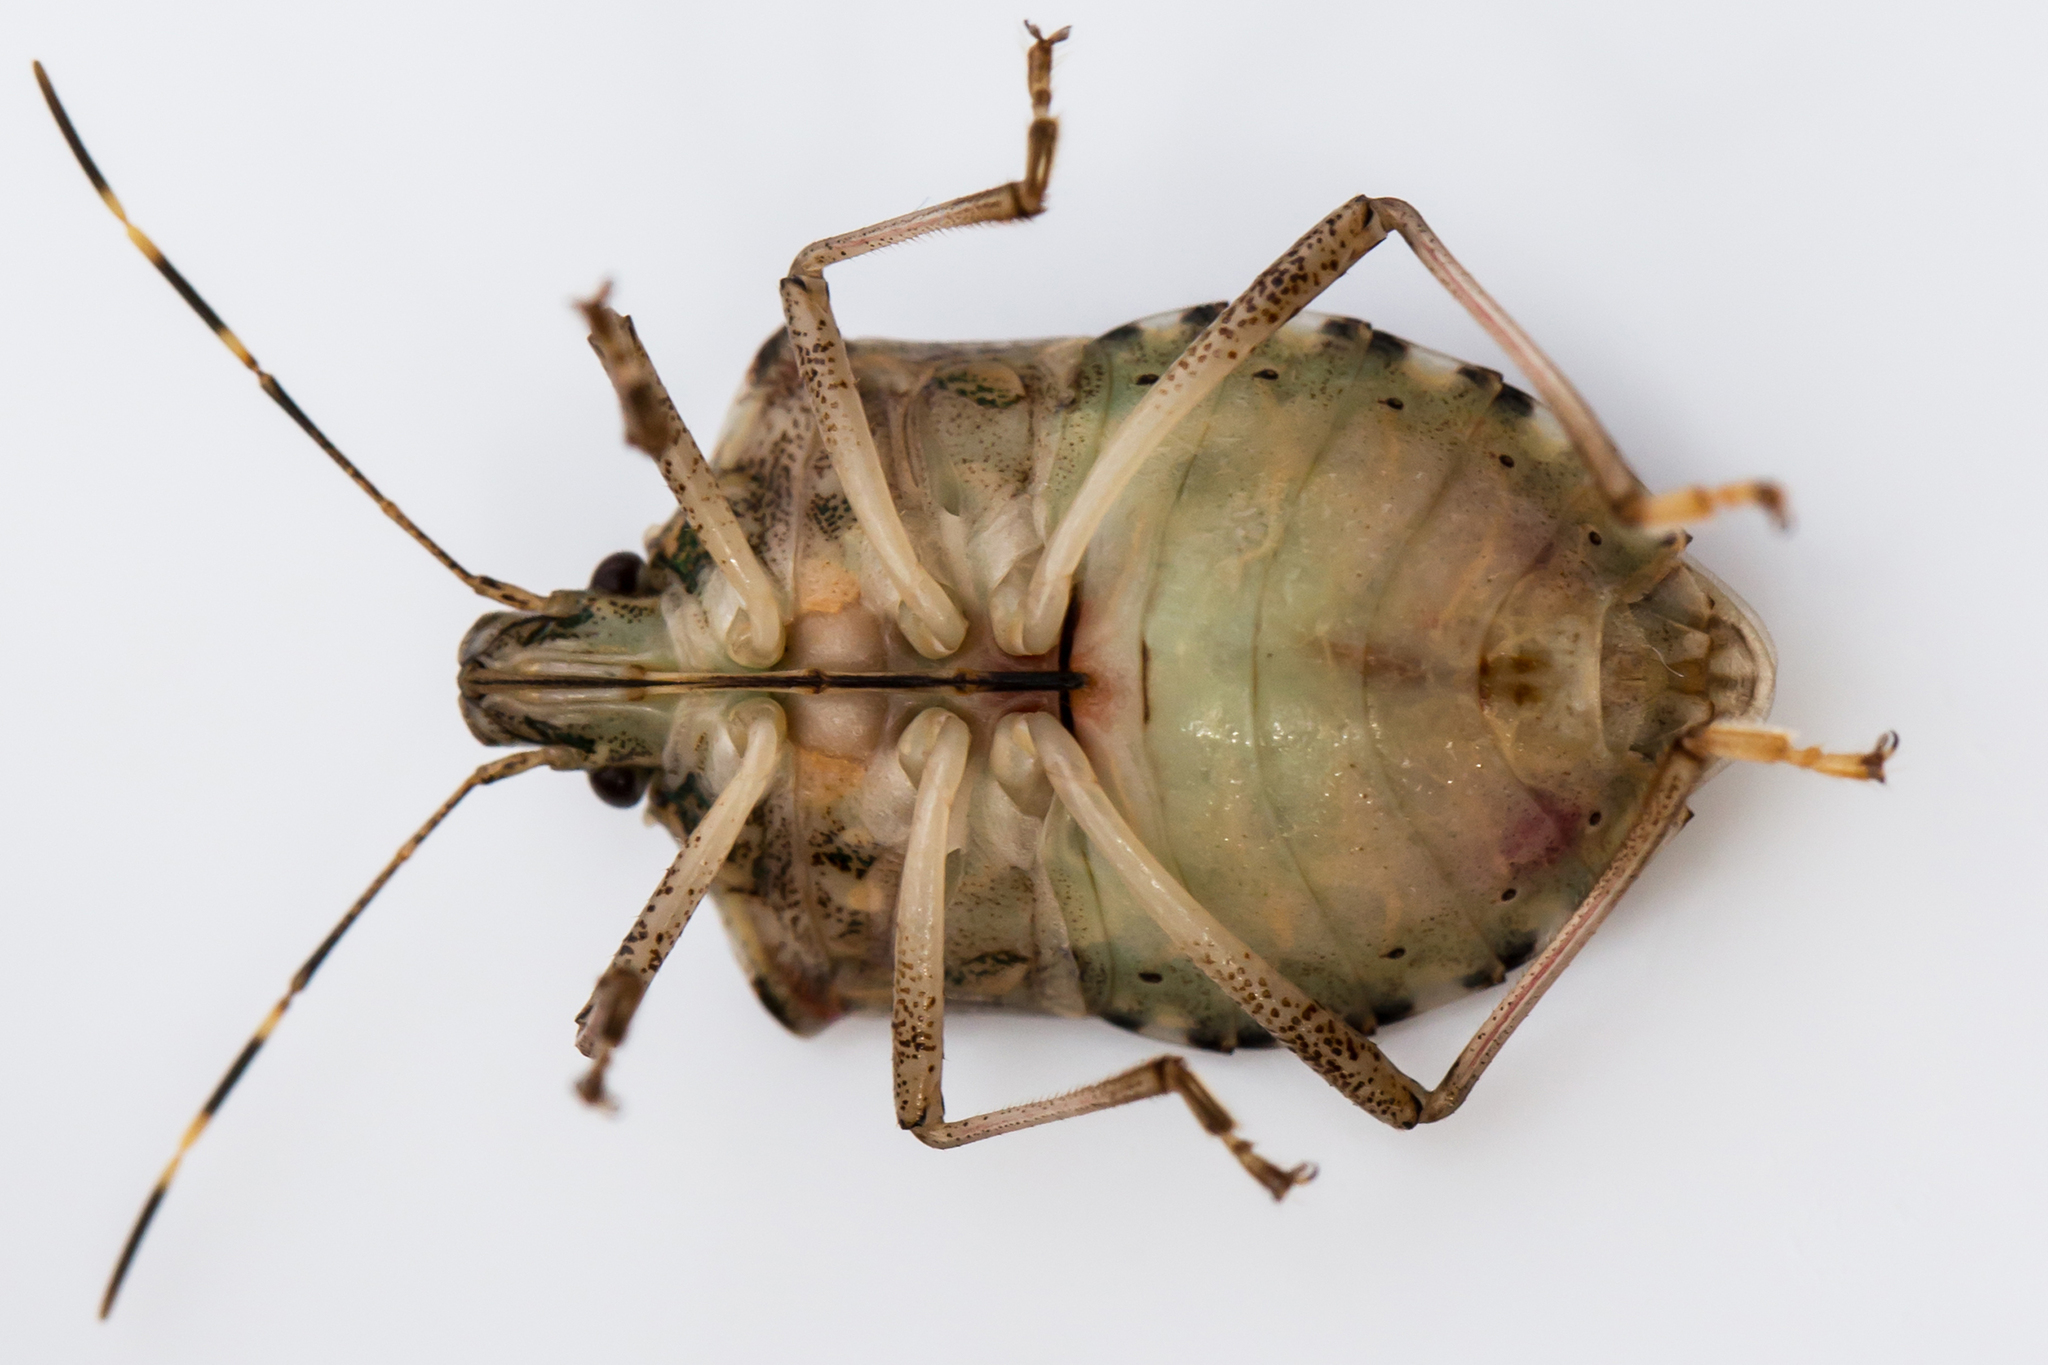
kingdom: Animalia
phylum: Arthropoda
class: Insecta
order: Hemiptera
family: Pentatomidae
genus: Halyomorpha
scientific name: Halyomorpha halys
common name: Brown marmorated stink bug
